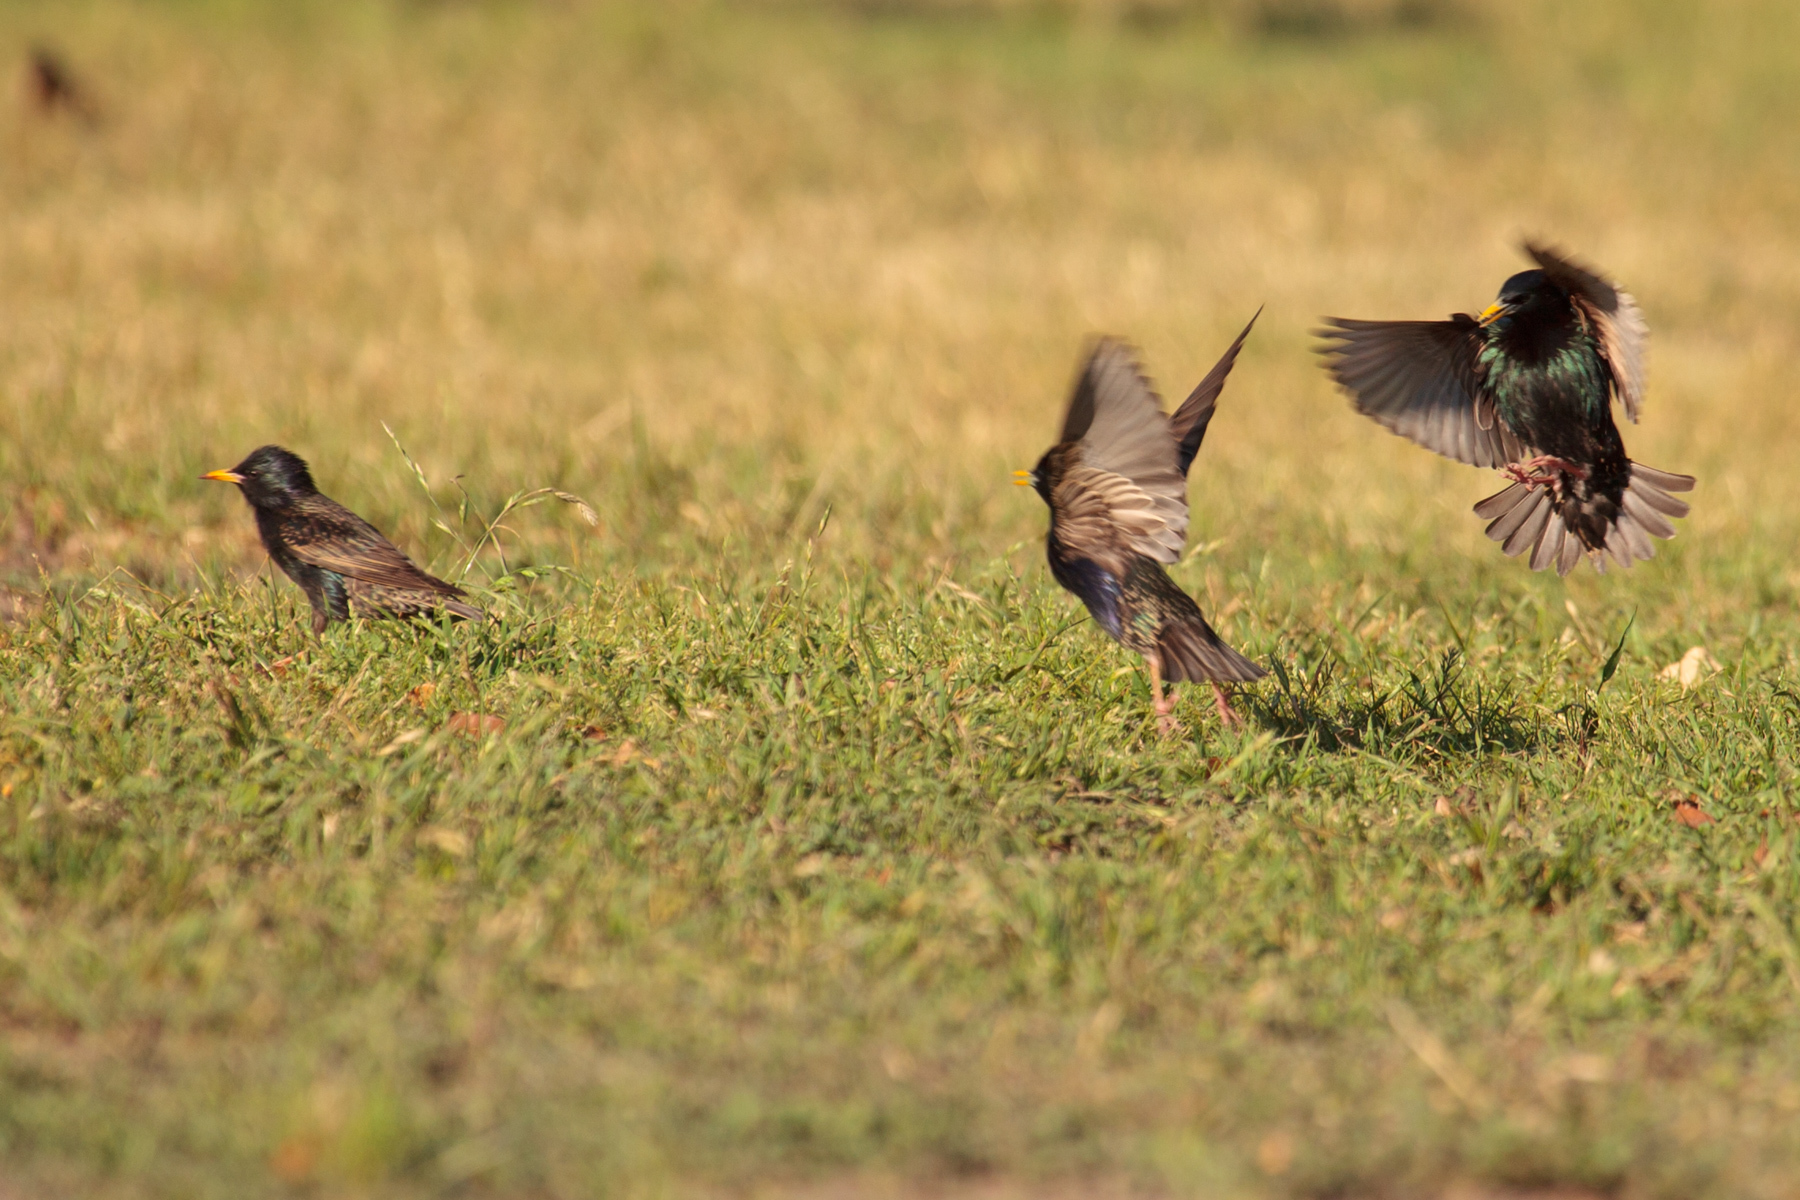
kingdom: Animalia
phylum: Chordata
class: Aves
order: Passeriformes
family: Sturnidae
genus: Sturnus
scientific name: Sturnus vulgaris
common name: Common starling
